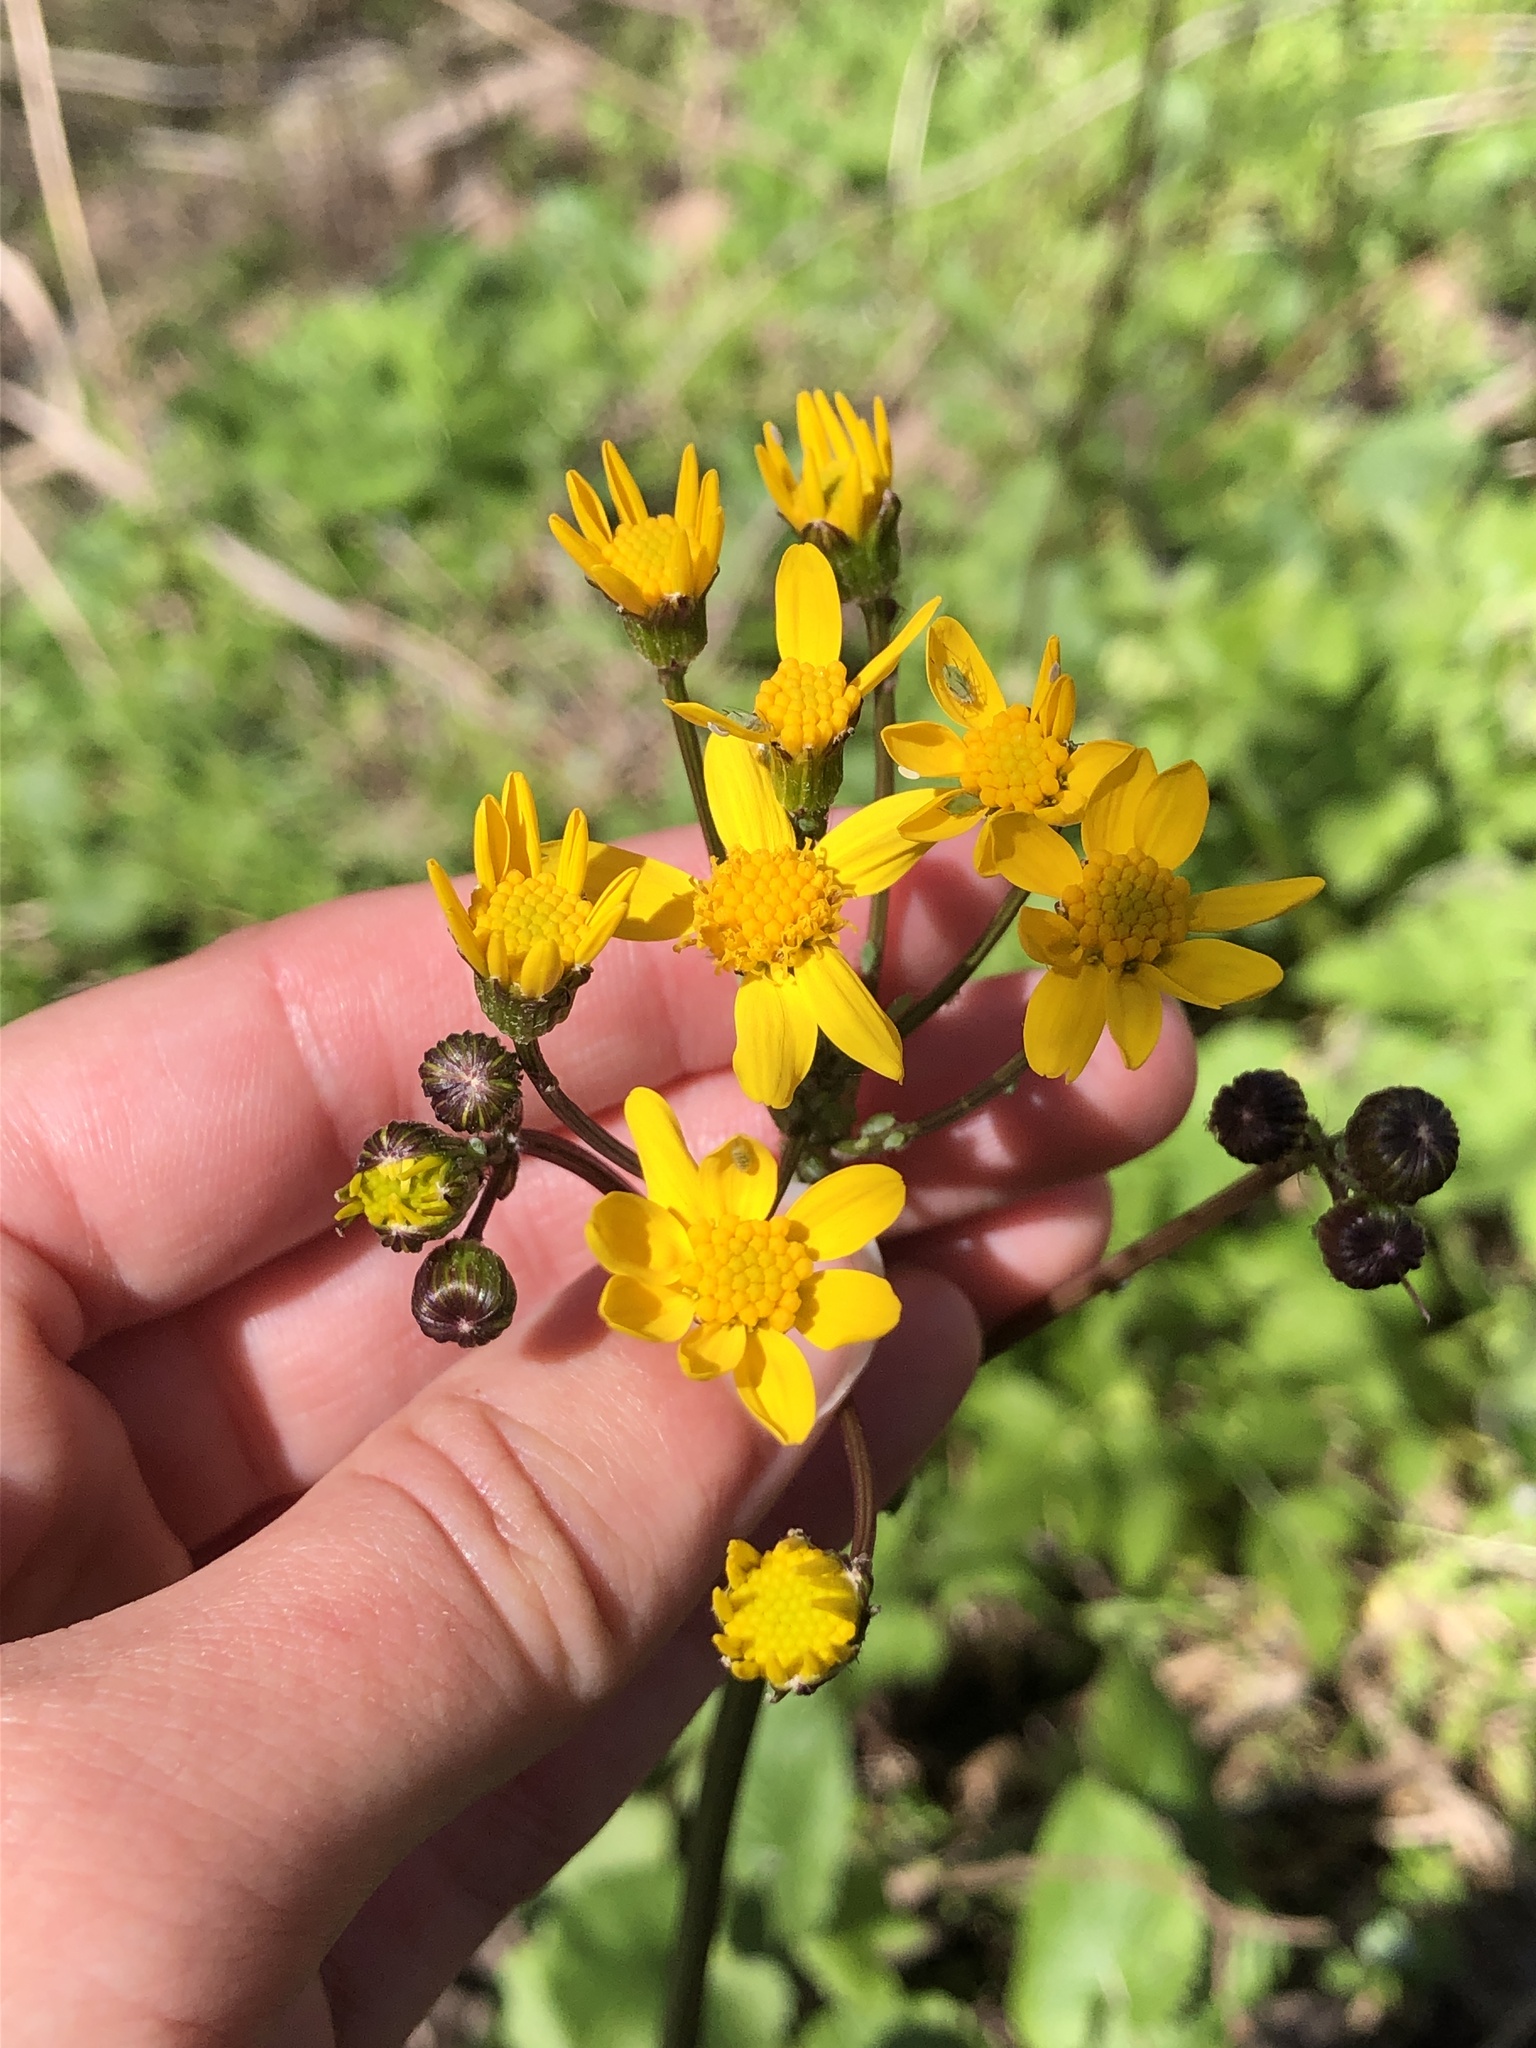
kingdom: Plantae
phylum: Tracheophyta
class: Magnoliopsida
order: Asterales
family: Asteraceae
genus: Packera
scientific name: Packera aurea
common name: Golden groundsel
